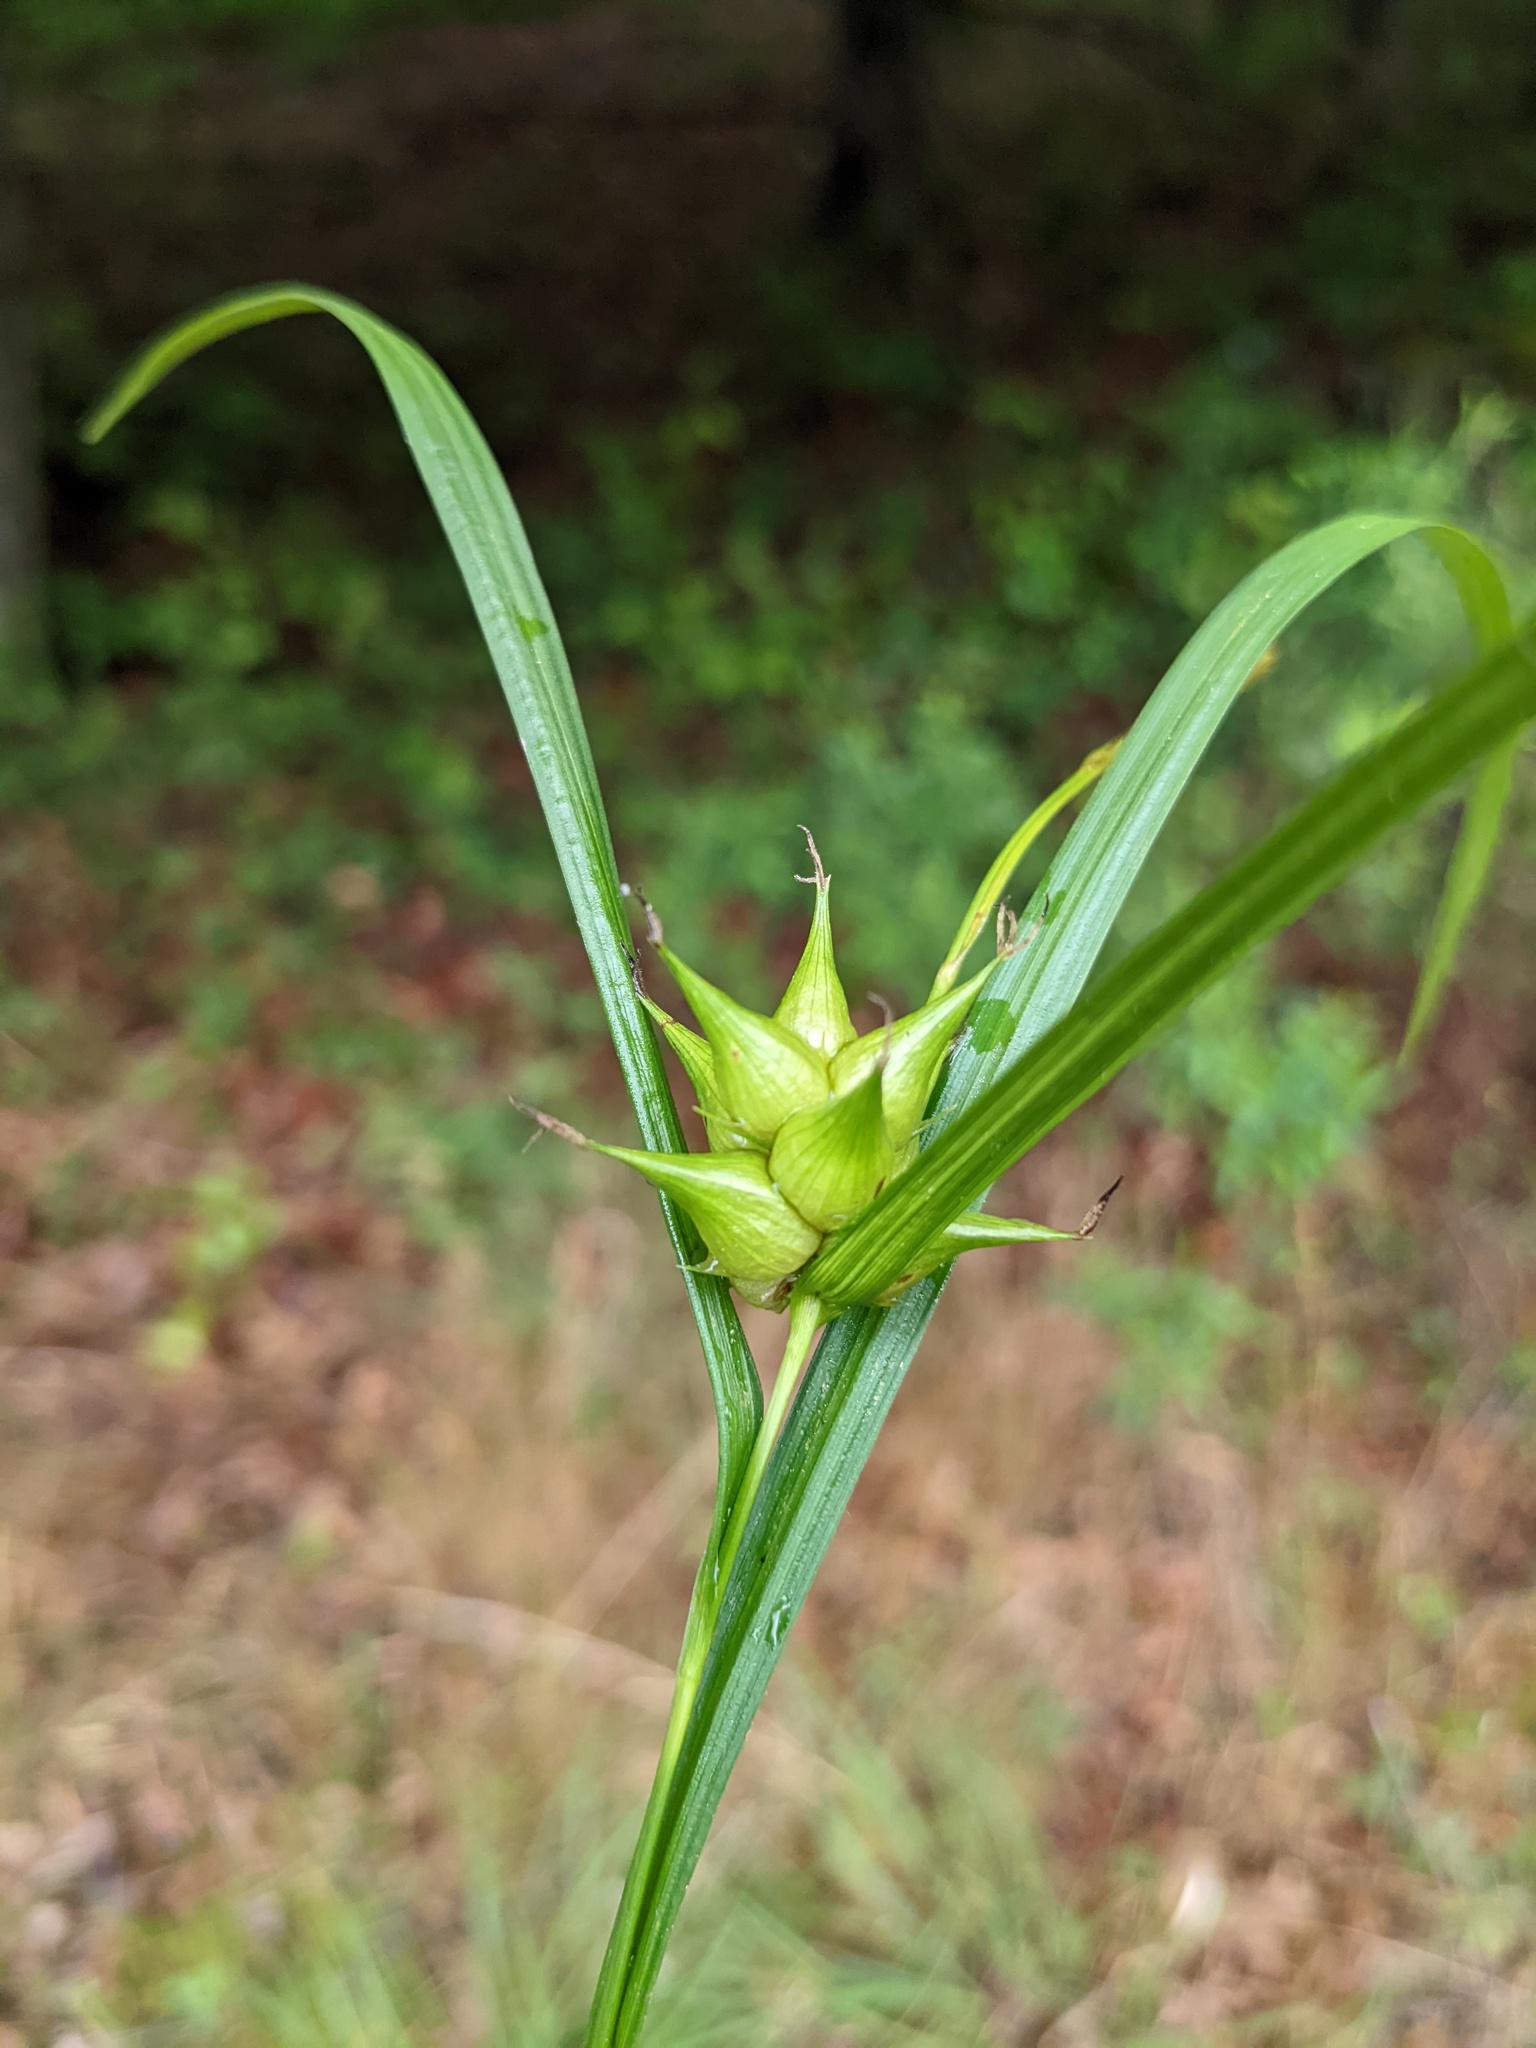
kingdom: Plantae
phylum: Tracheophyta
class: Liliopsida
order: Poales
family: Cyperaceae
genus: Carex
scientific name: Carex intumescens
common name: Greater bladder sedge
